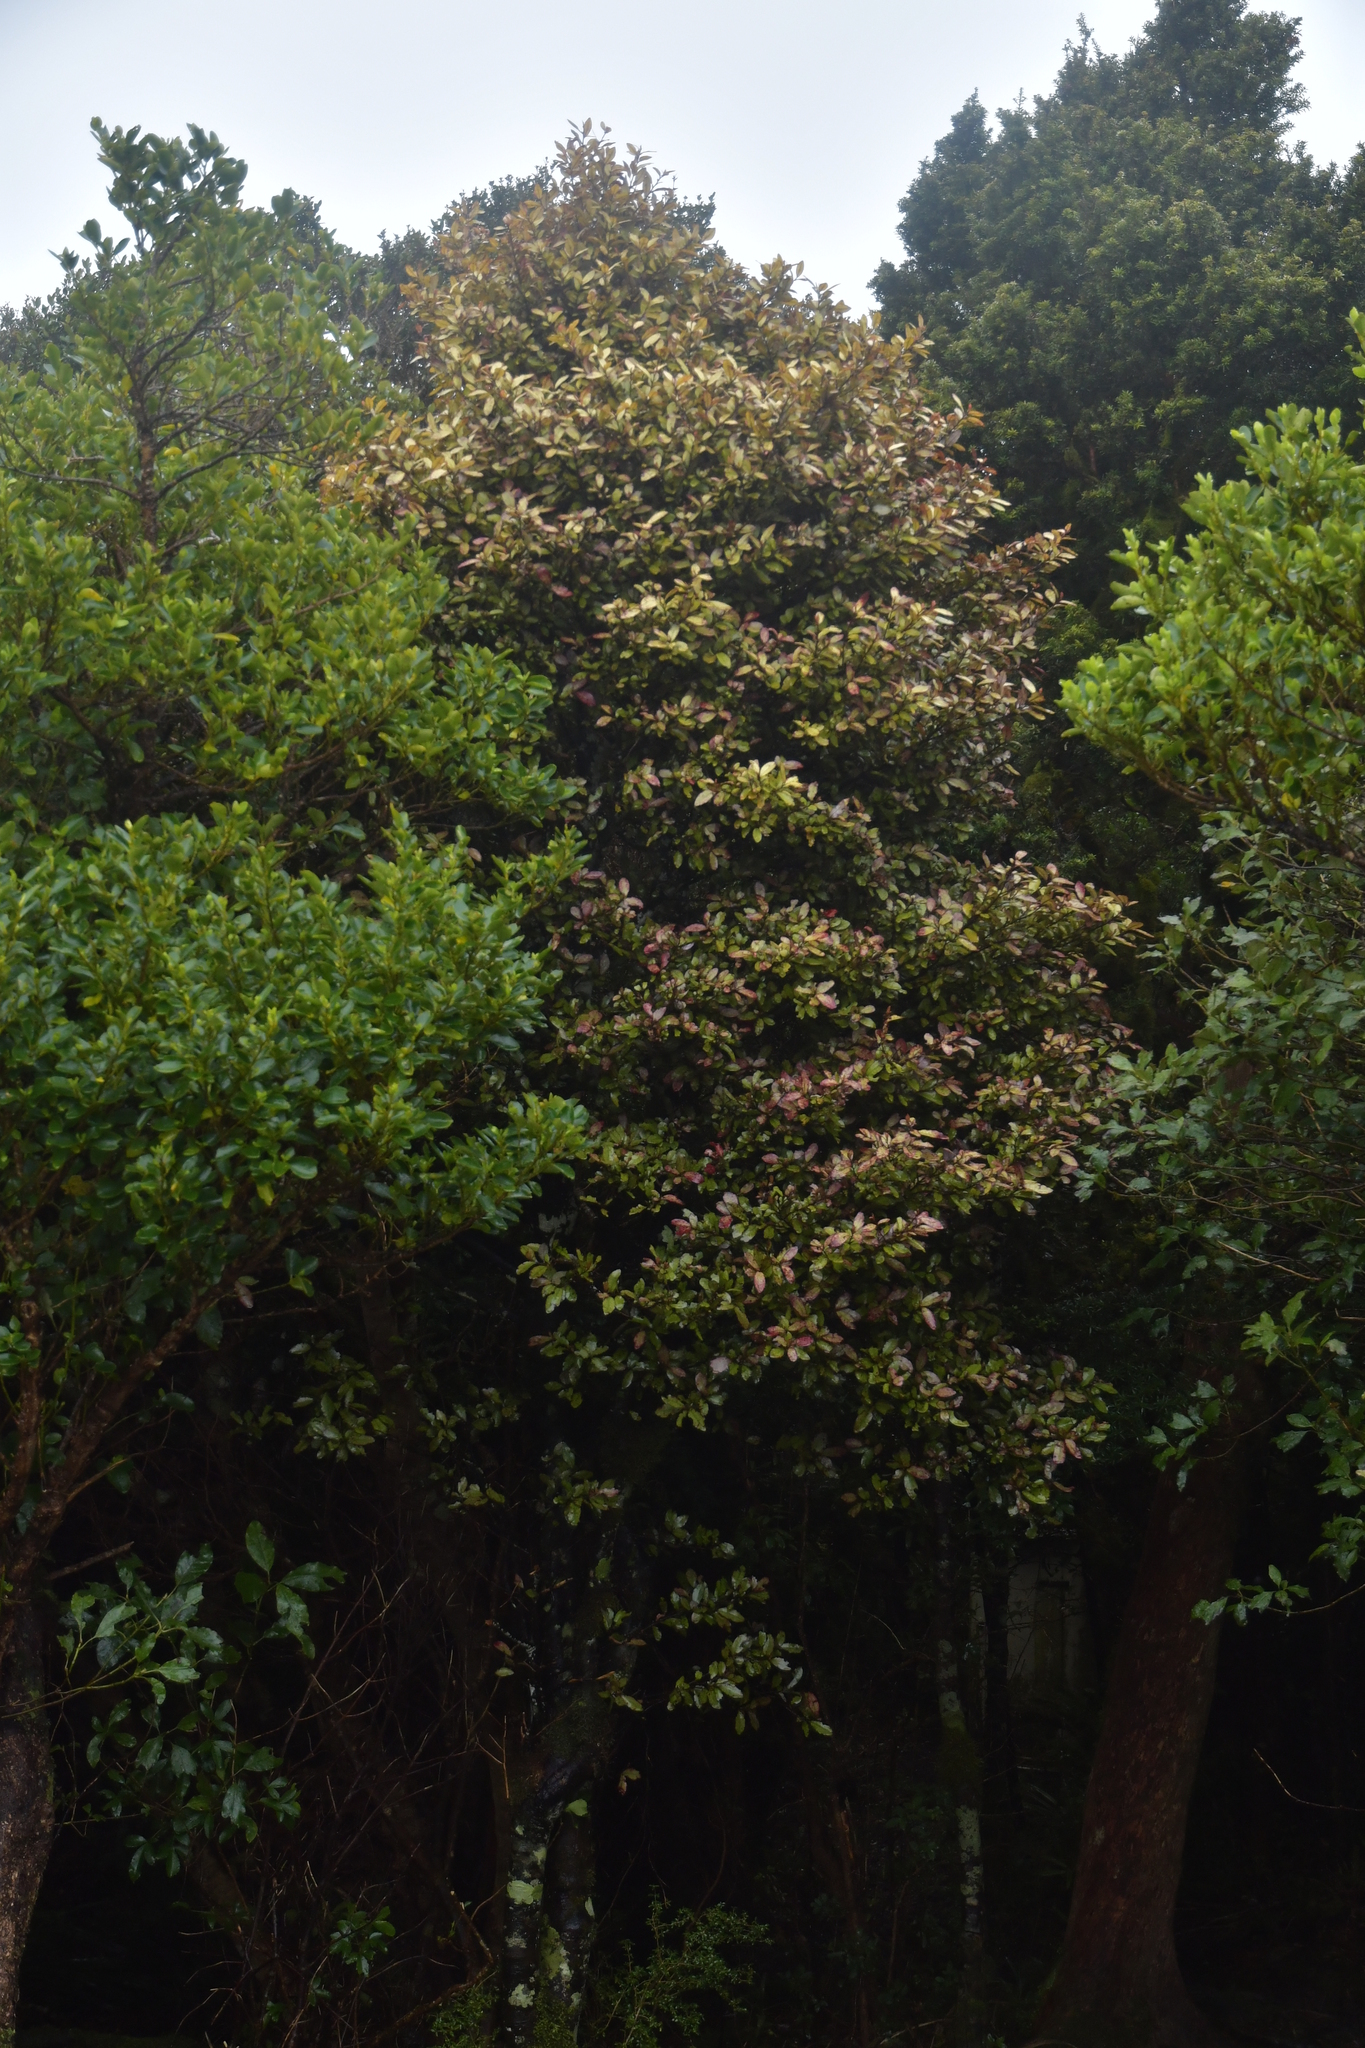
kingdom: Plantae
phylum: Tracheophyta
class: Magnoliopsida
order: Canellales
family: Winteraceae
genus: Pseudowintera
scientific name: Pseudowintera colorata
